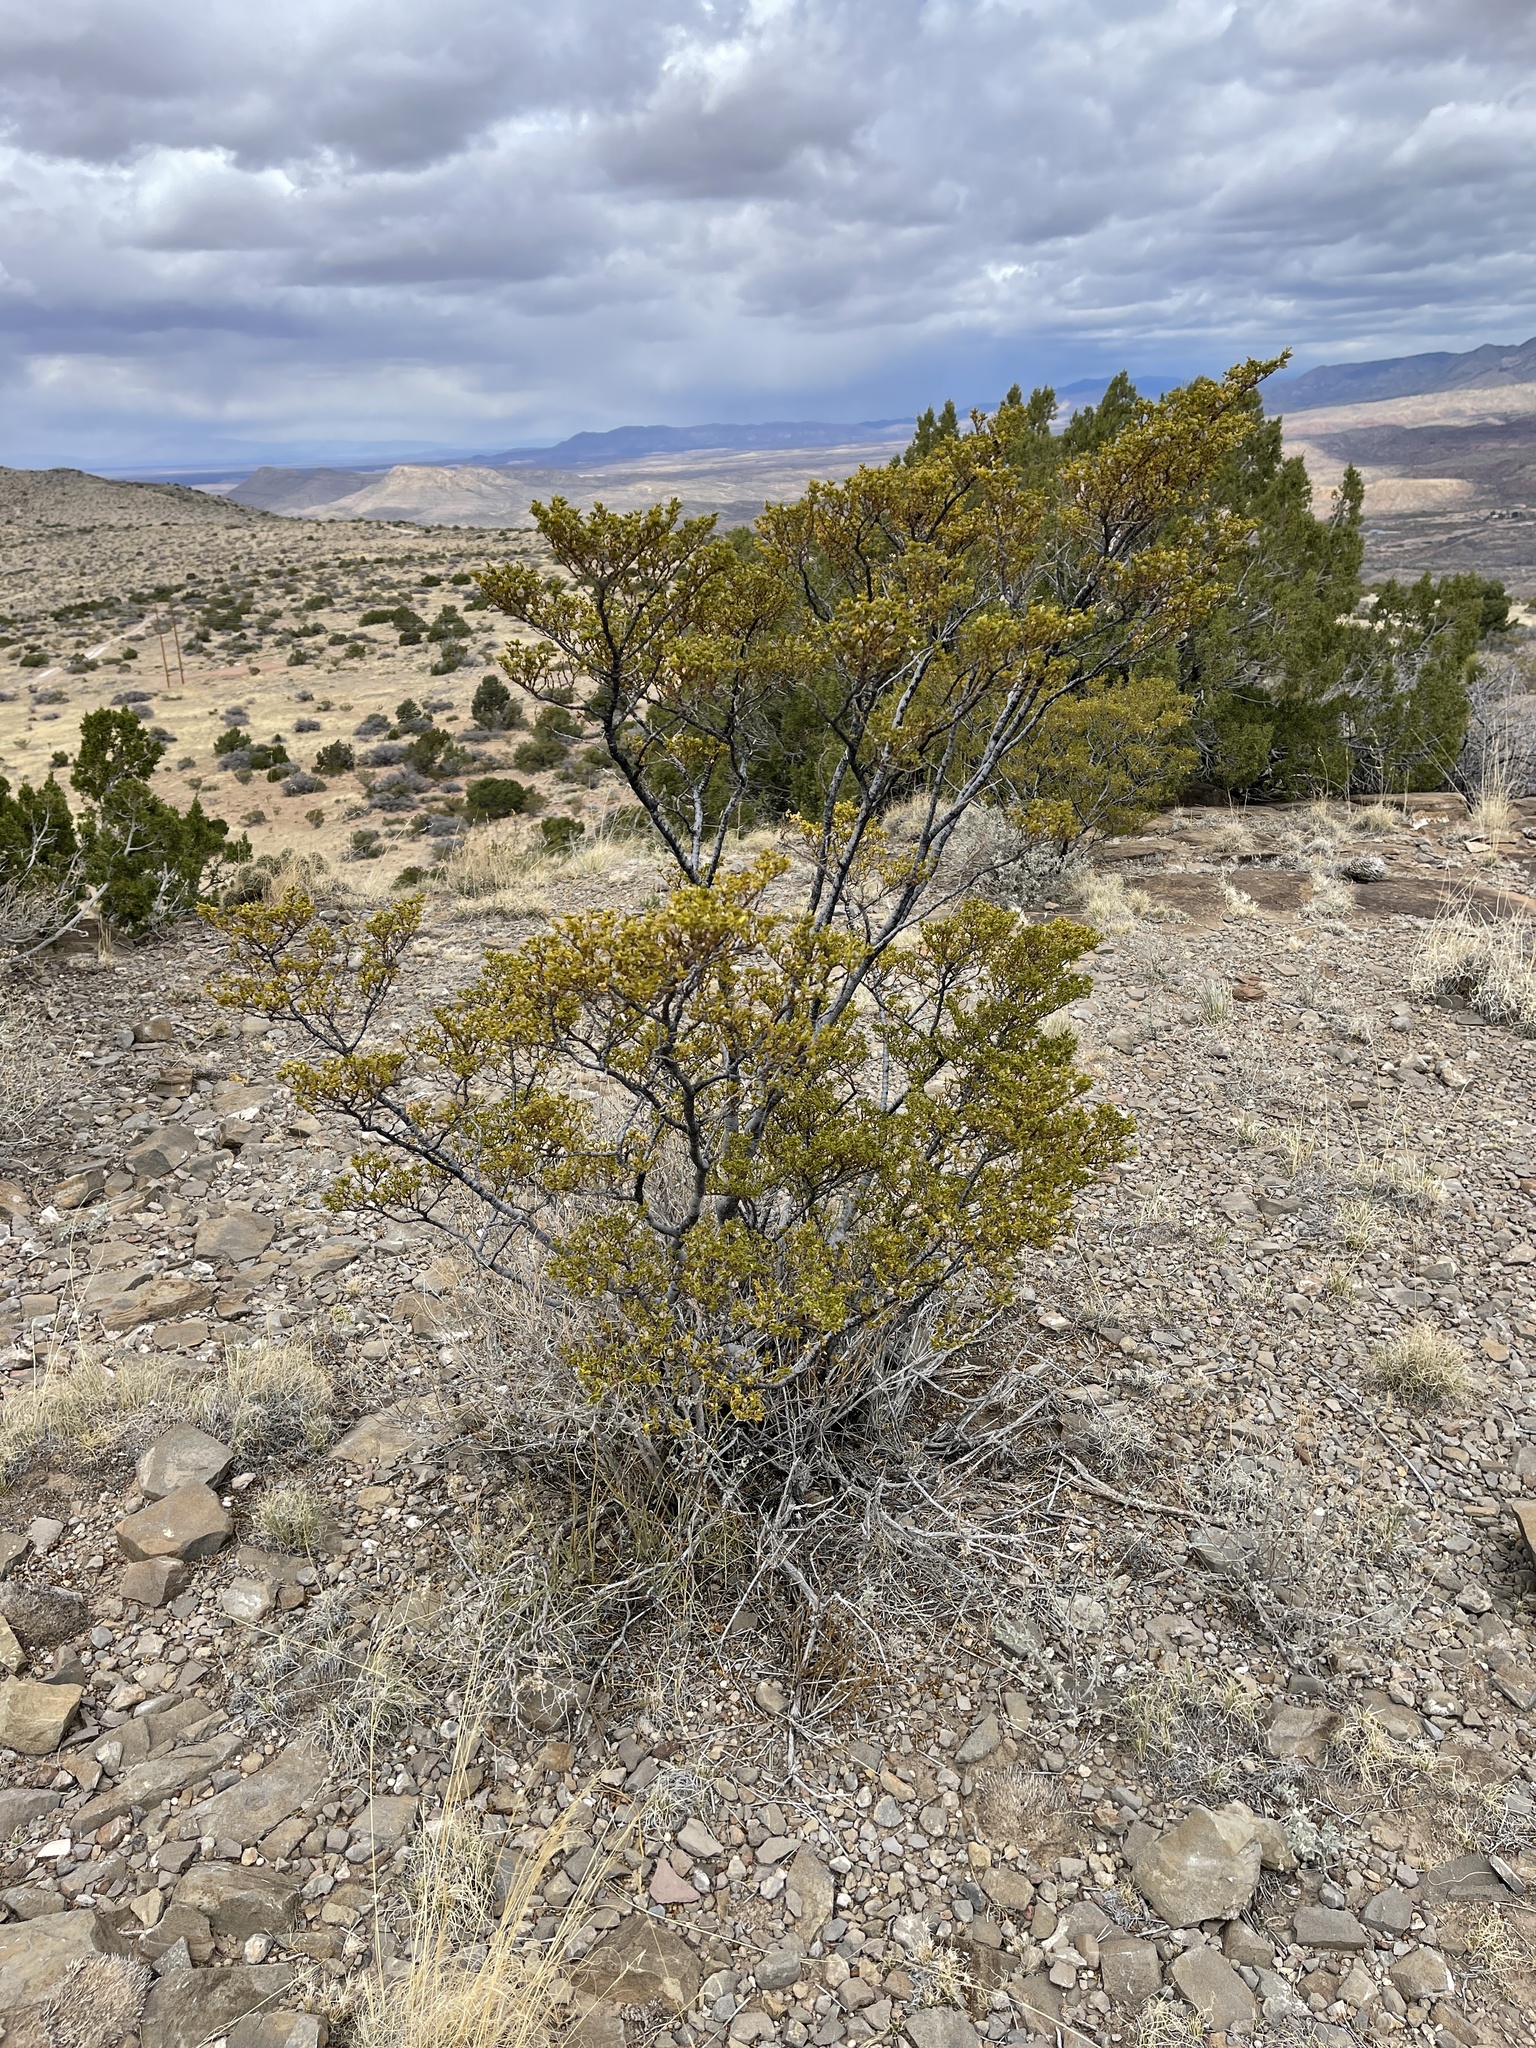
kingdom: Plantae
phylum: Tracheophyta
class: Magnoliopsida
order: Zygophyllales
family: Zygophyllaceae
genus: Larrea
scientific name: Larrea tridentata
